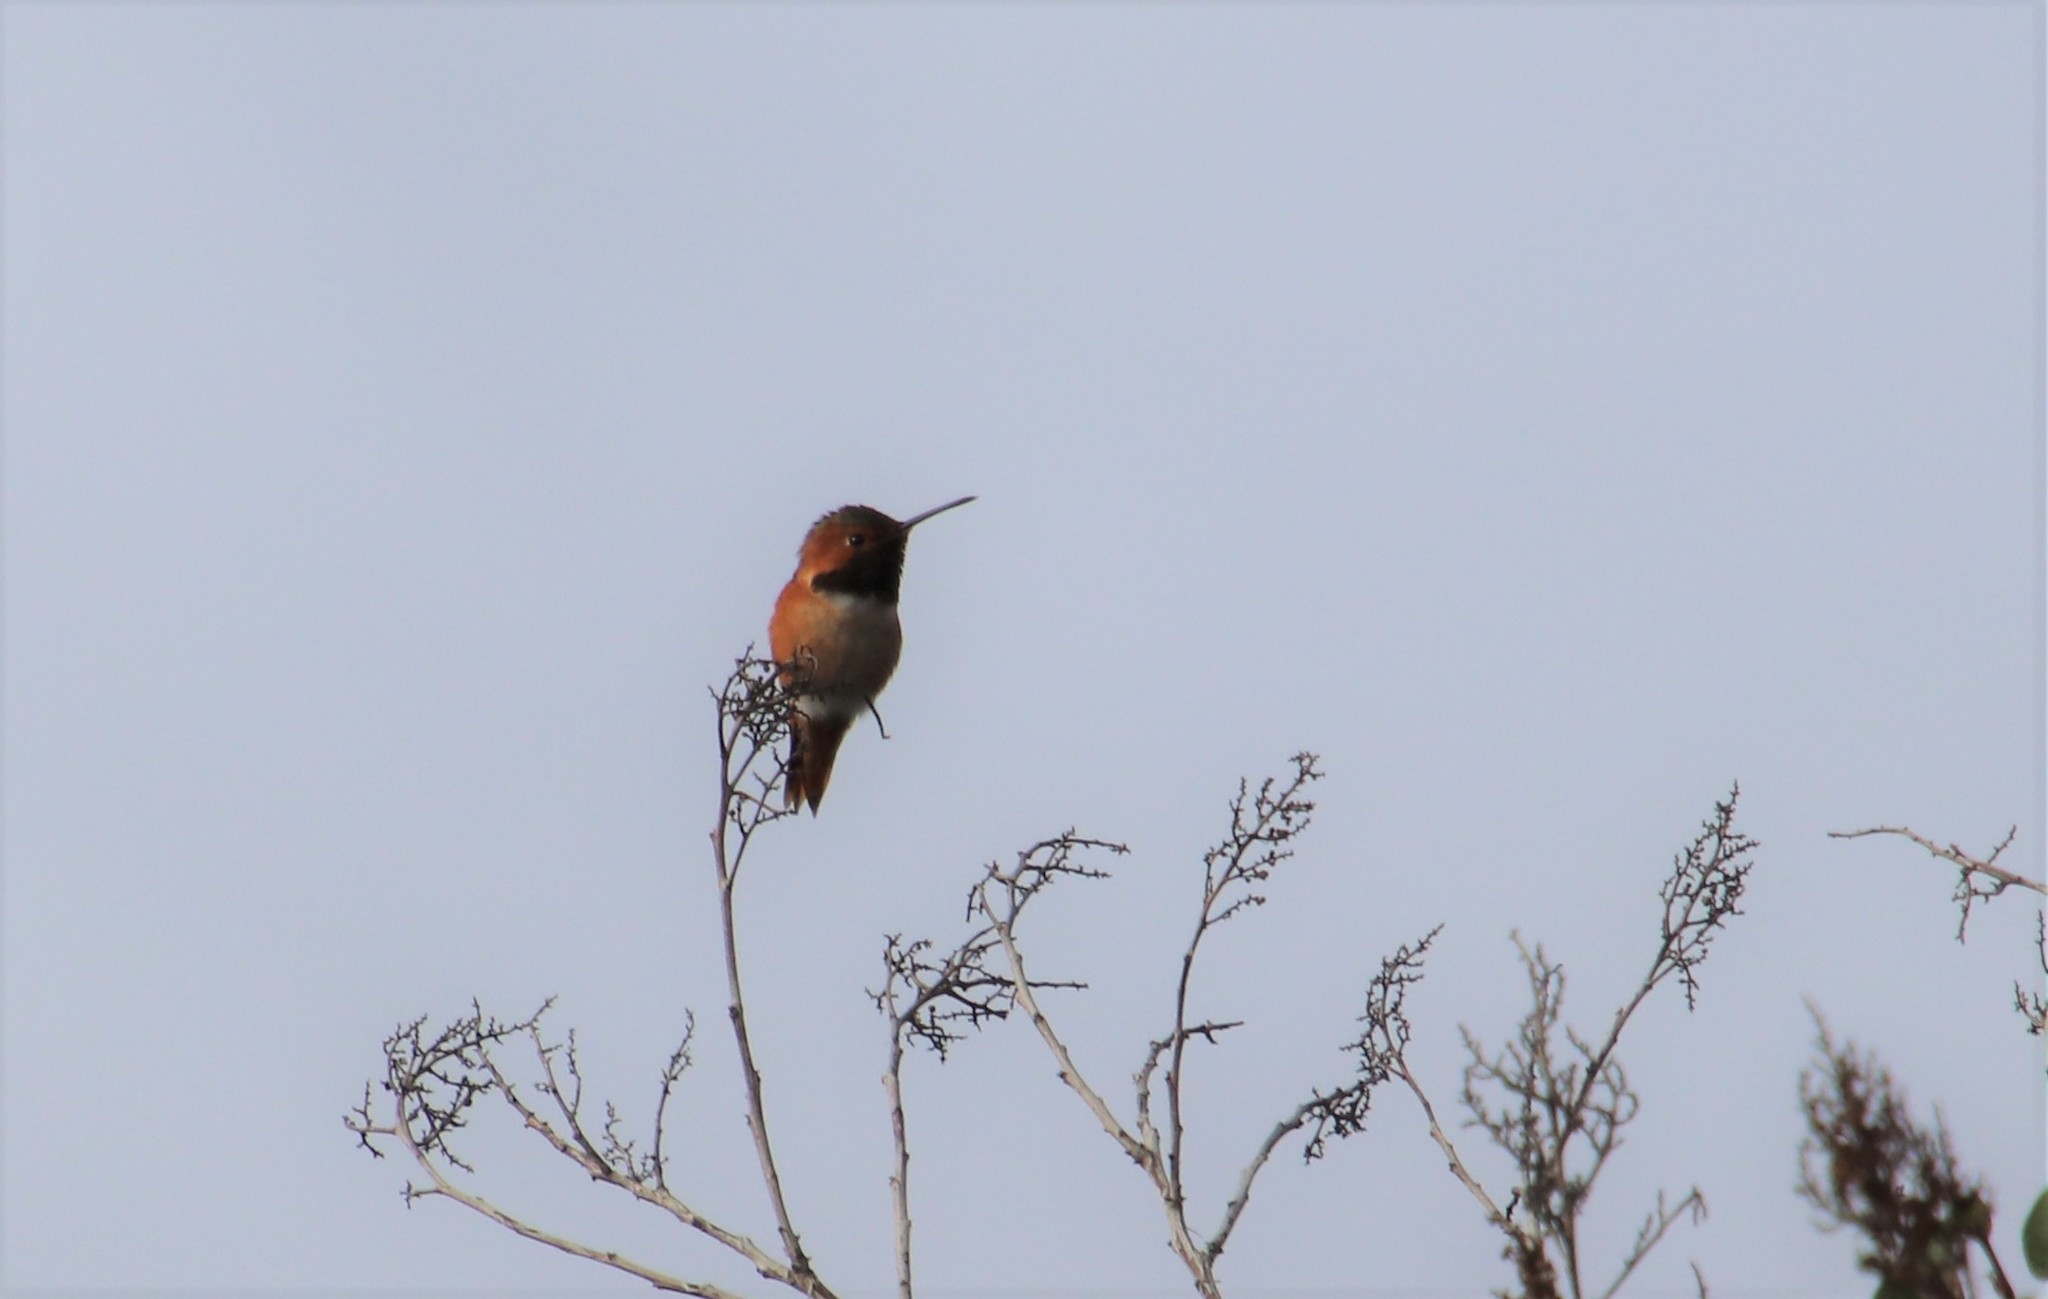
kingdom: Animalia
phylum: Chordata
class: Aves
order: Apodiformes
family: Trochilidae
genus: Selasphorus
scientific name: Selasphorus sasin
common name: Allen's hummingbird
